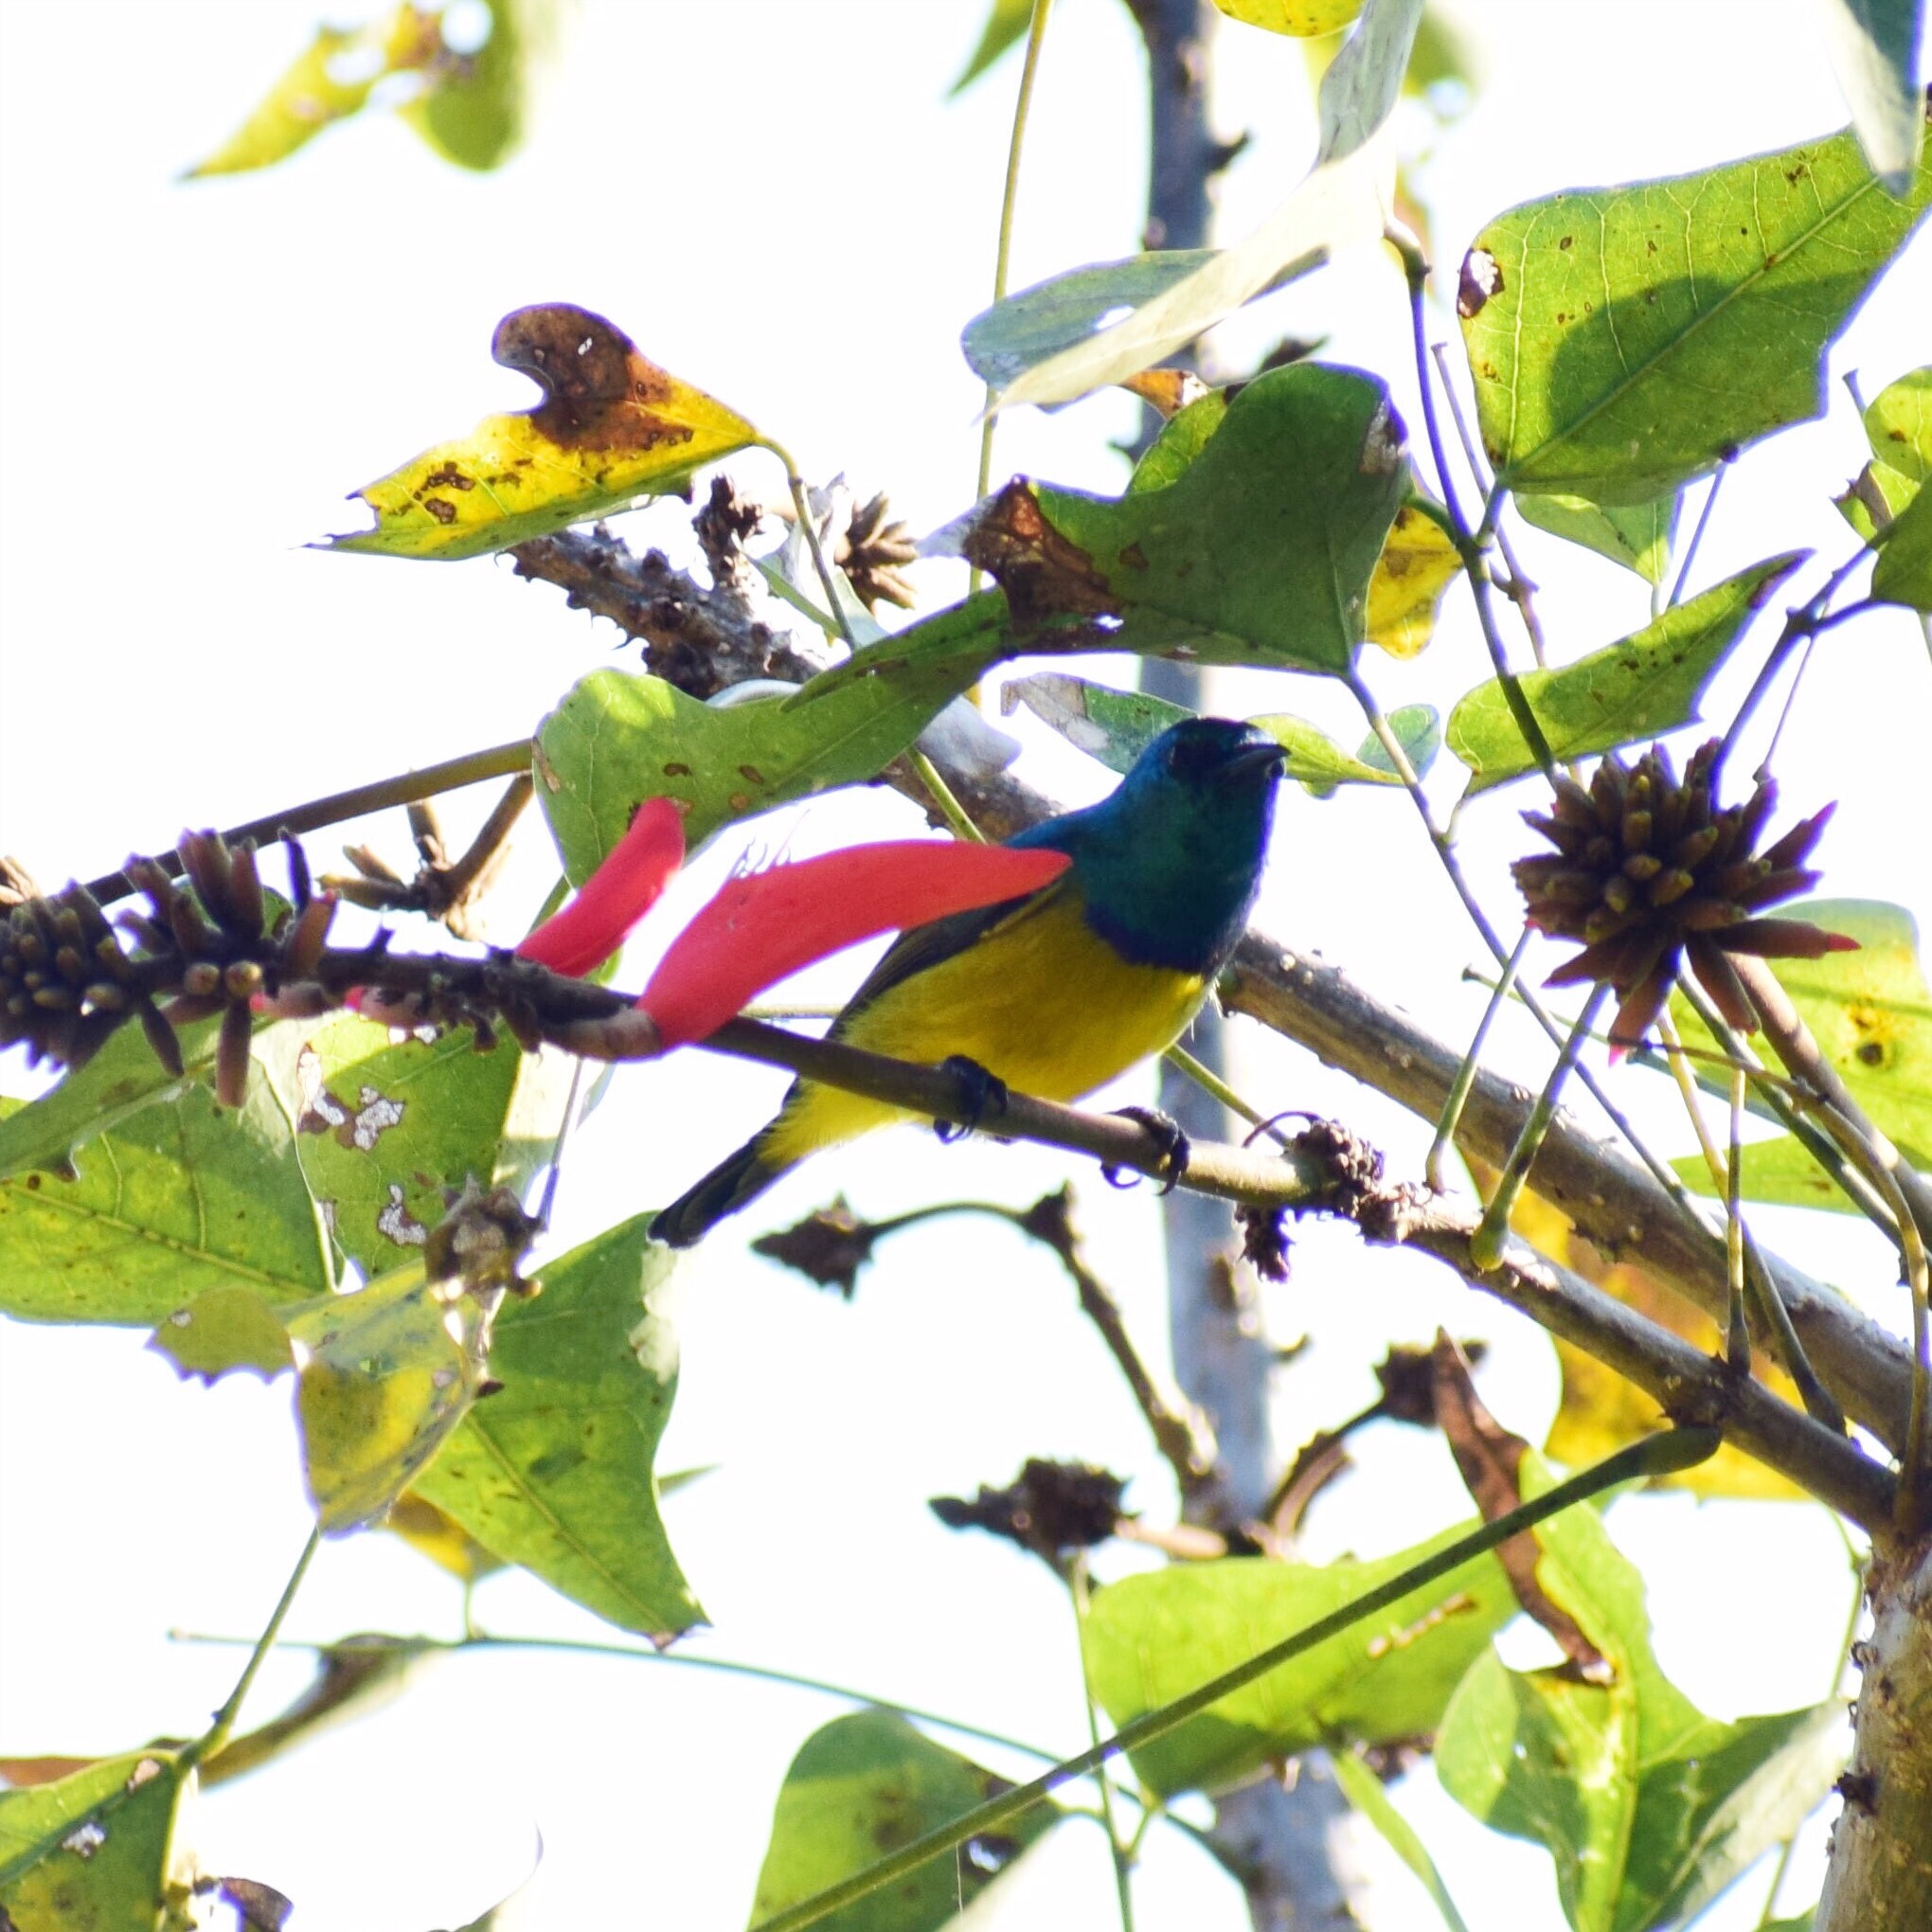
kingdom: Animalia
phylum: Chordata
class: Aves
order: Passeriformes
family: Nectariniidae
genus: Hedydipna
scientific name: Hedydipna collaris
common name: Collared sunbird
